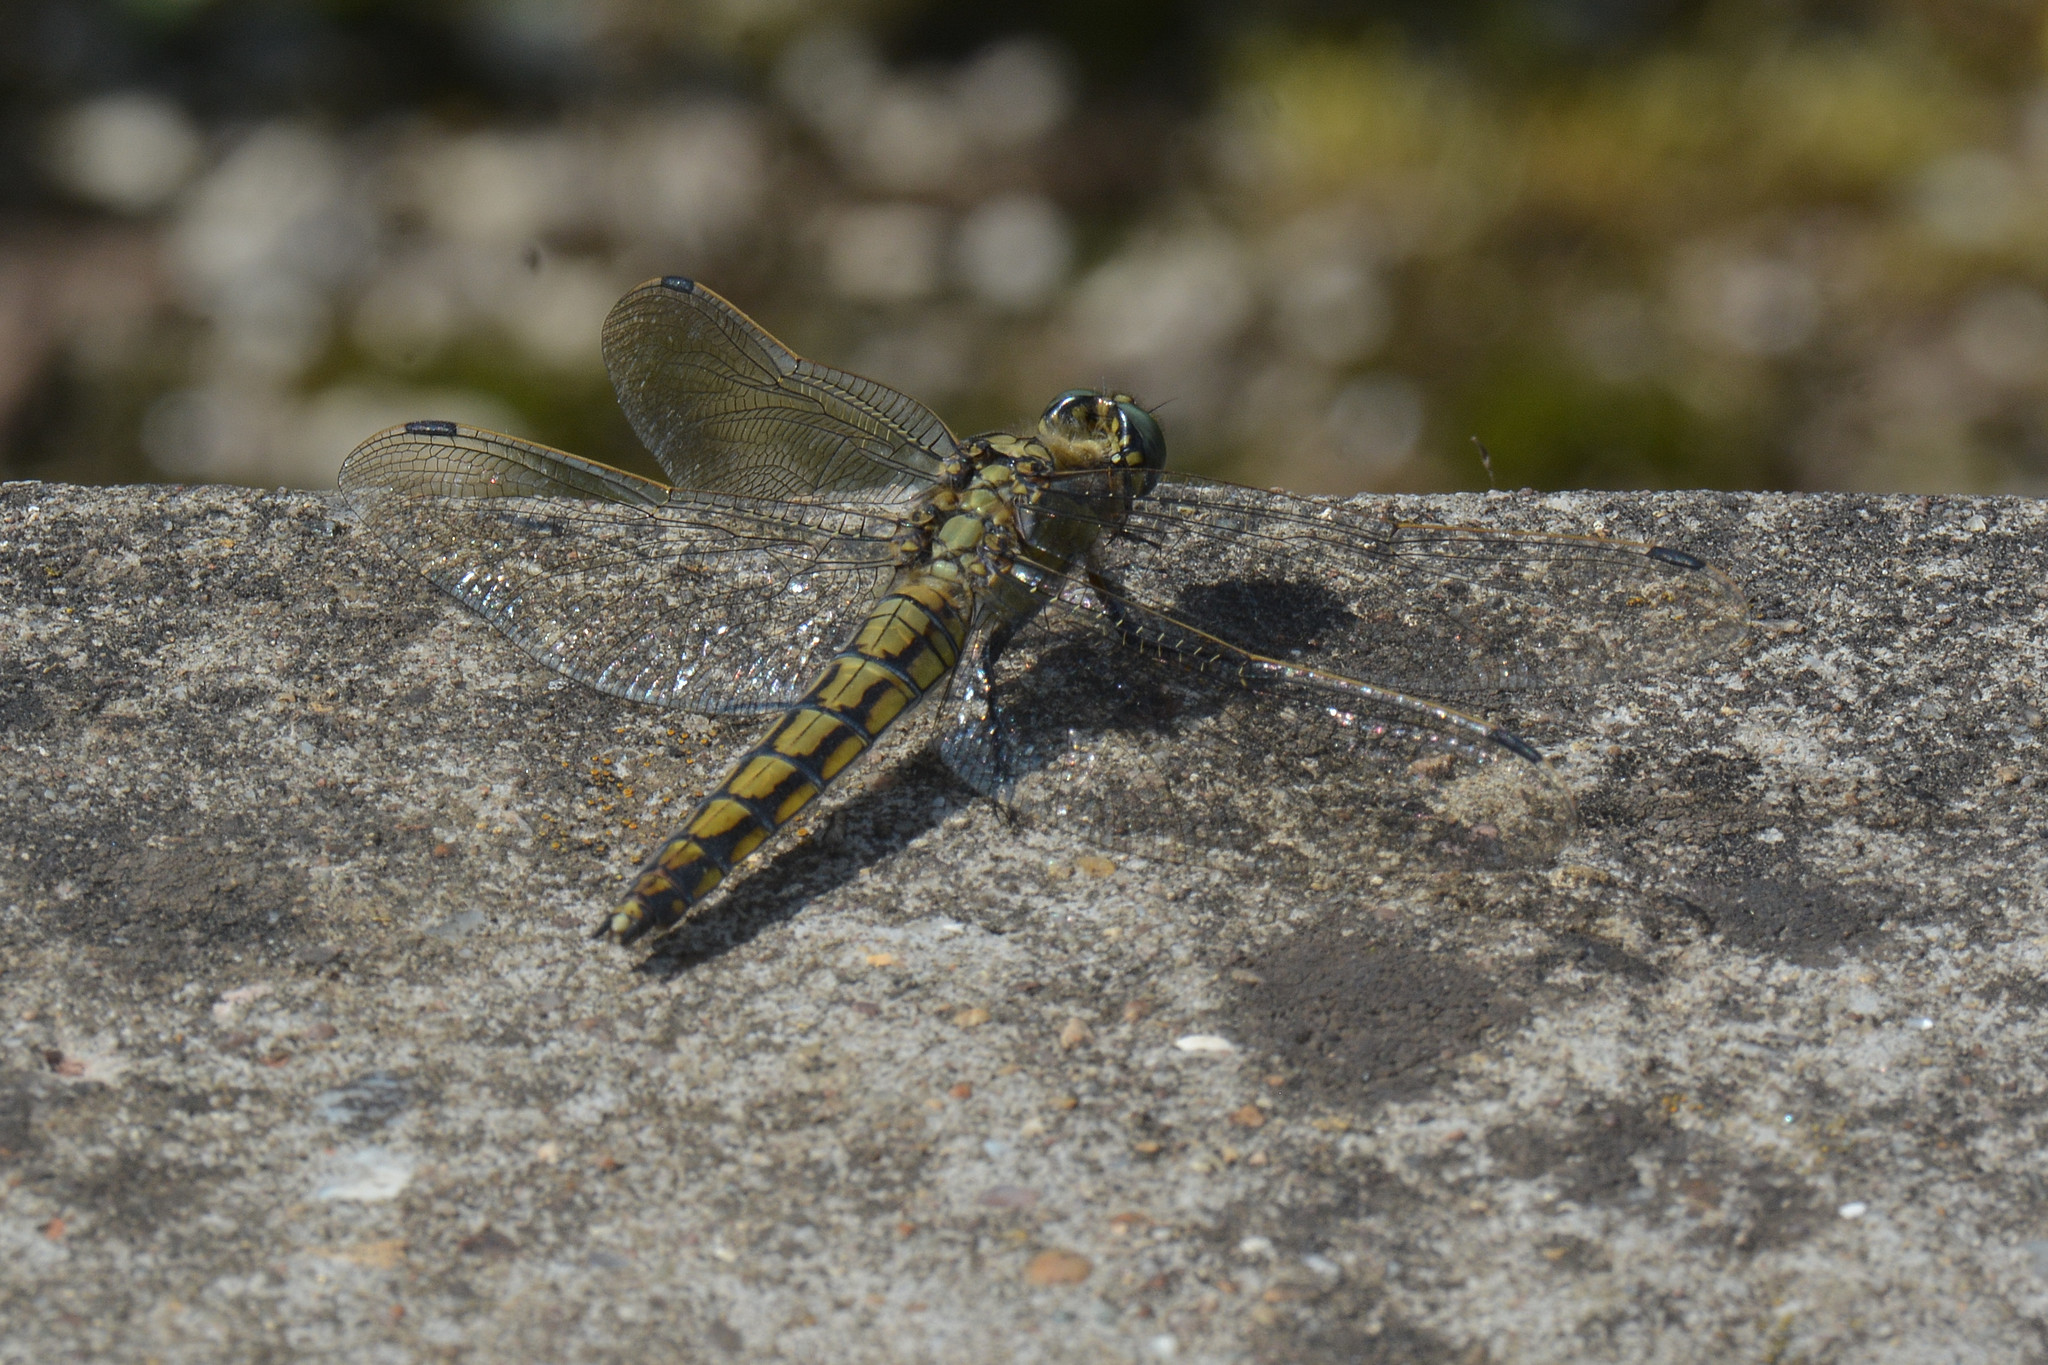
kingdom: Animalia
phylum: Arthropoda
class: Insecta
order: Odonata
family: Libellulidae
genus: Orthetrum
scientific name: Orthetrum cancellatum
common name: Black-tailed skimmer
